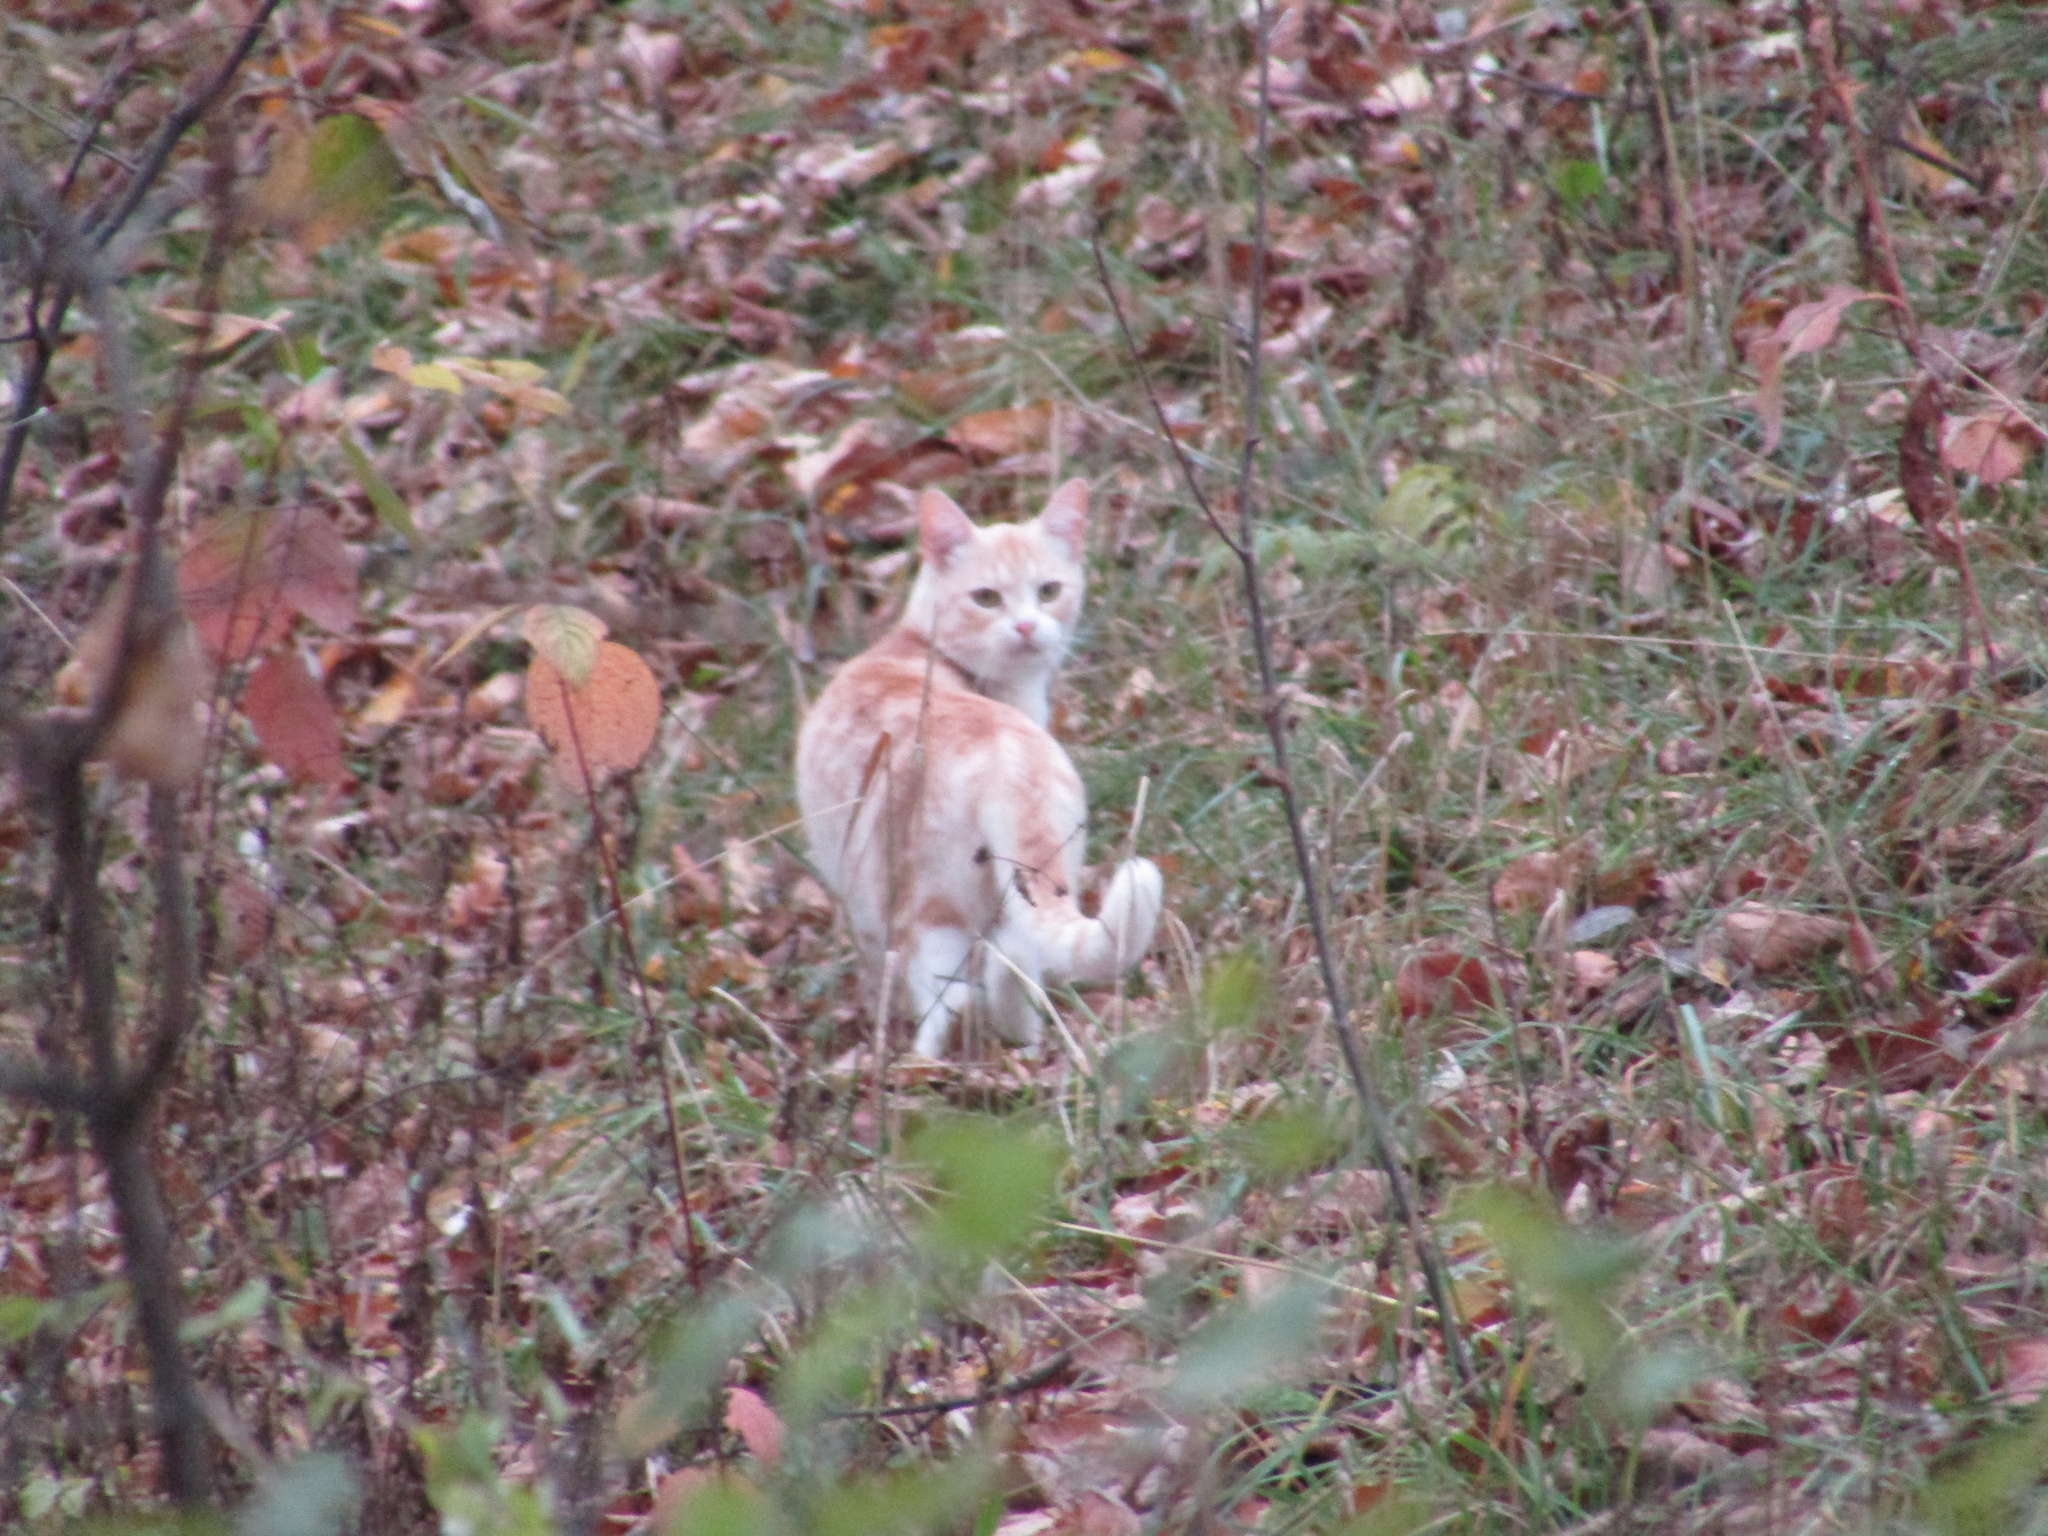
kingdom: Animalia
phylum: Chordata
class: Mammalia
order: Carnivora
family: Felidae
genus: Felis
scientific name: Felis catus
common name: Domestic cat
